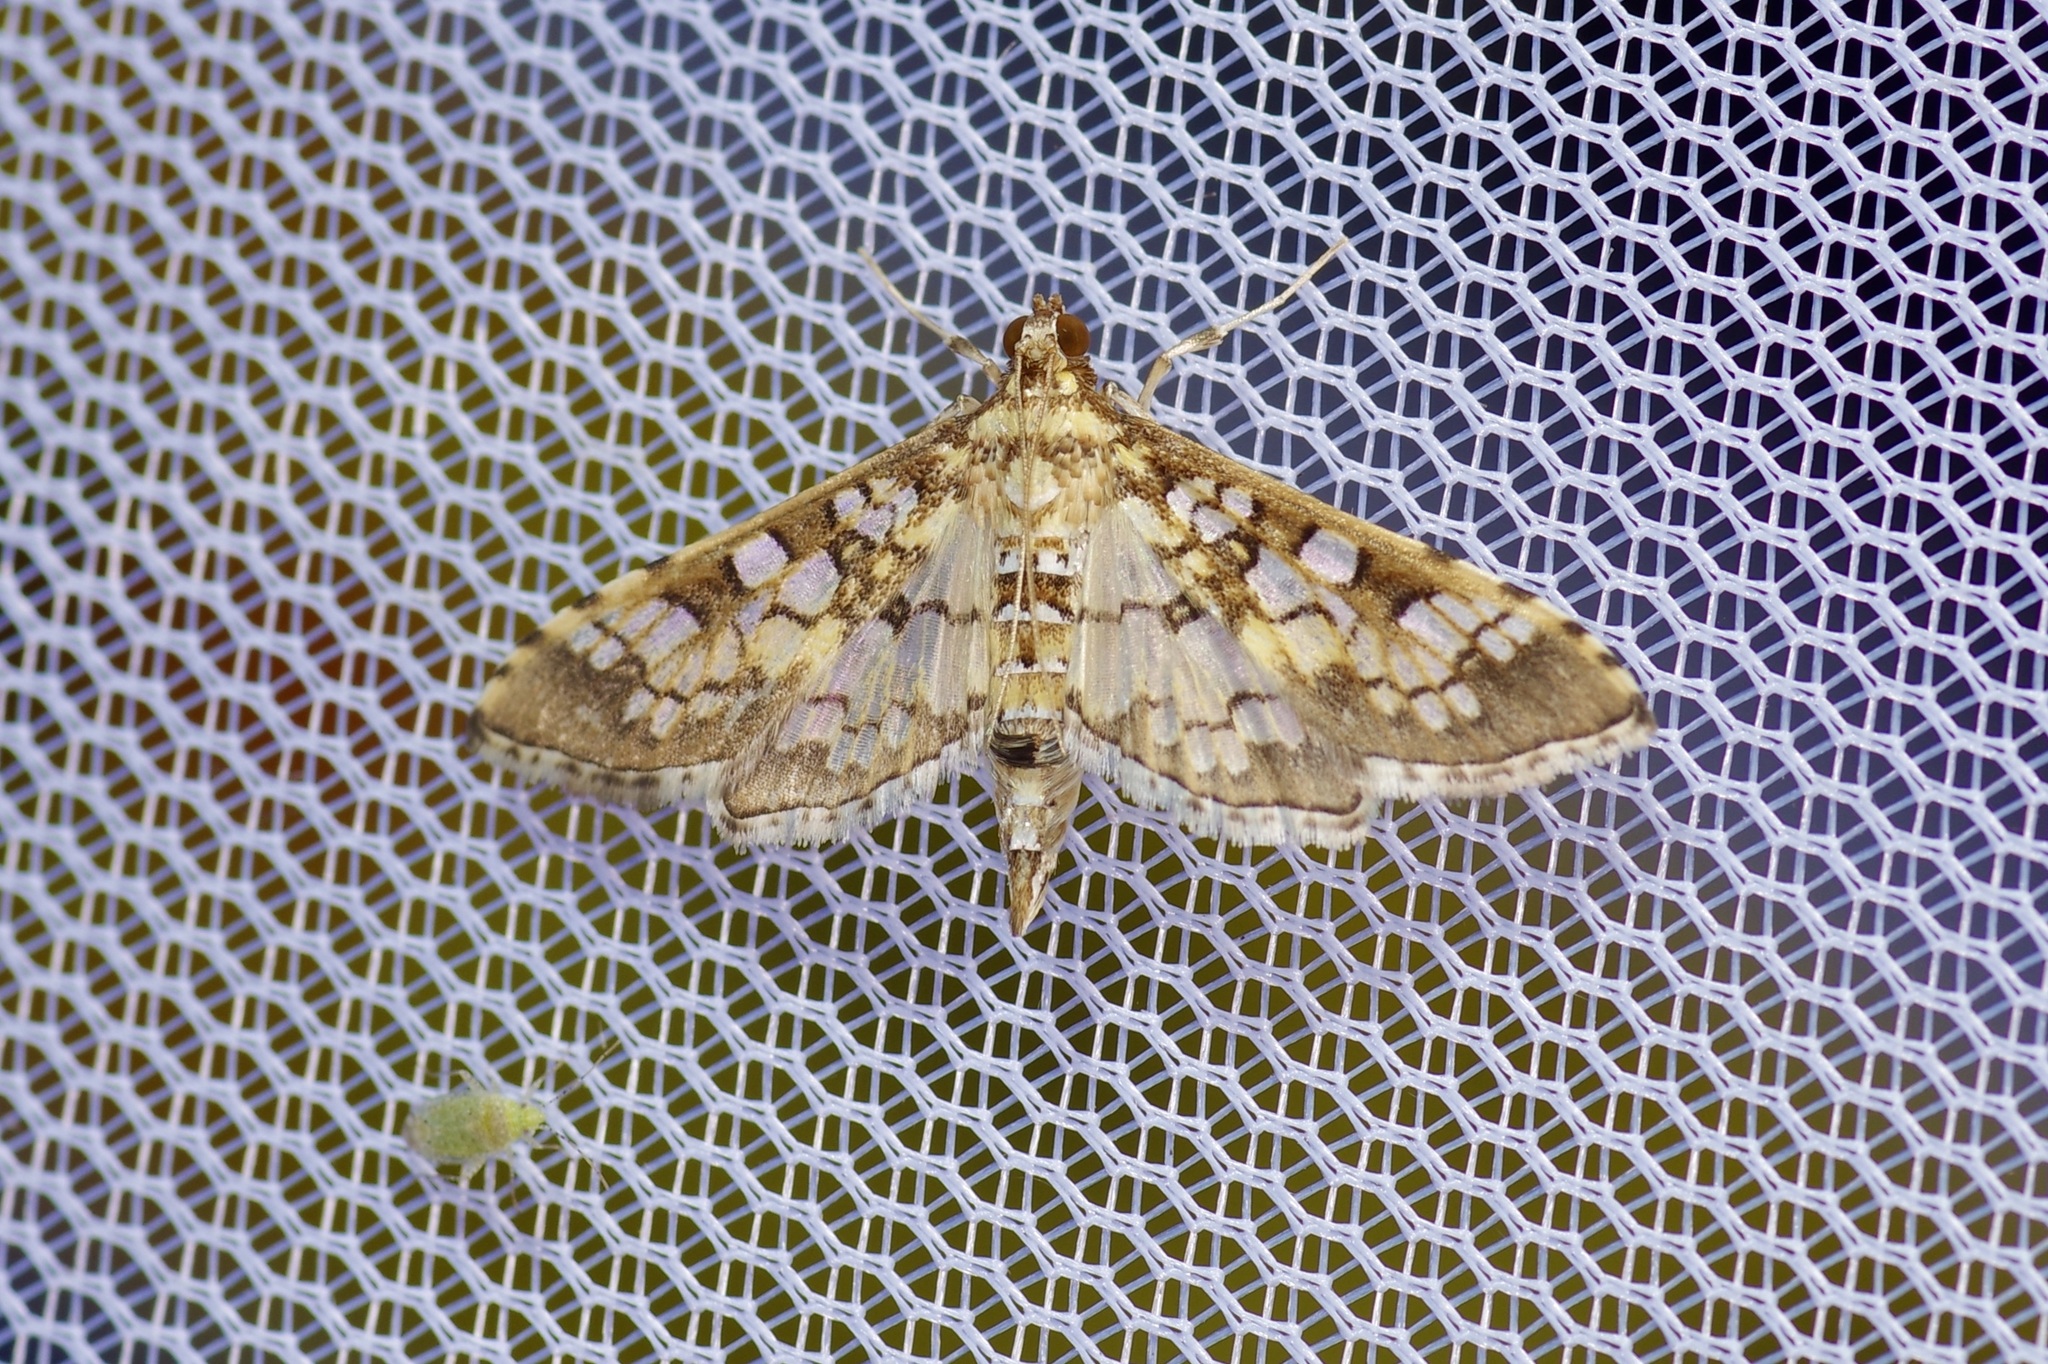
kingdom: Animalia
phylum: Arthropoda
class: Insecta
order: Lepidoptera
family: Crambidae
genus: Samea
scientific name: Samea ecclesialis
